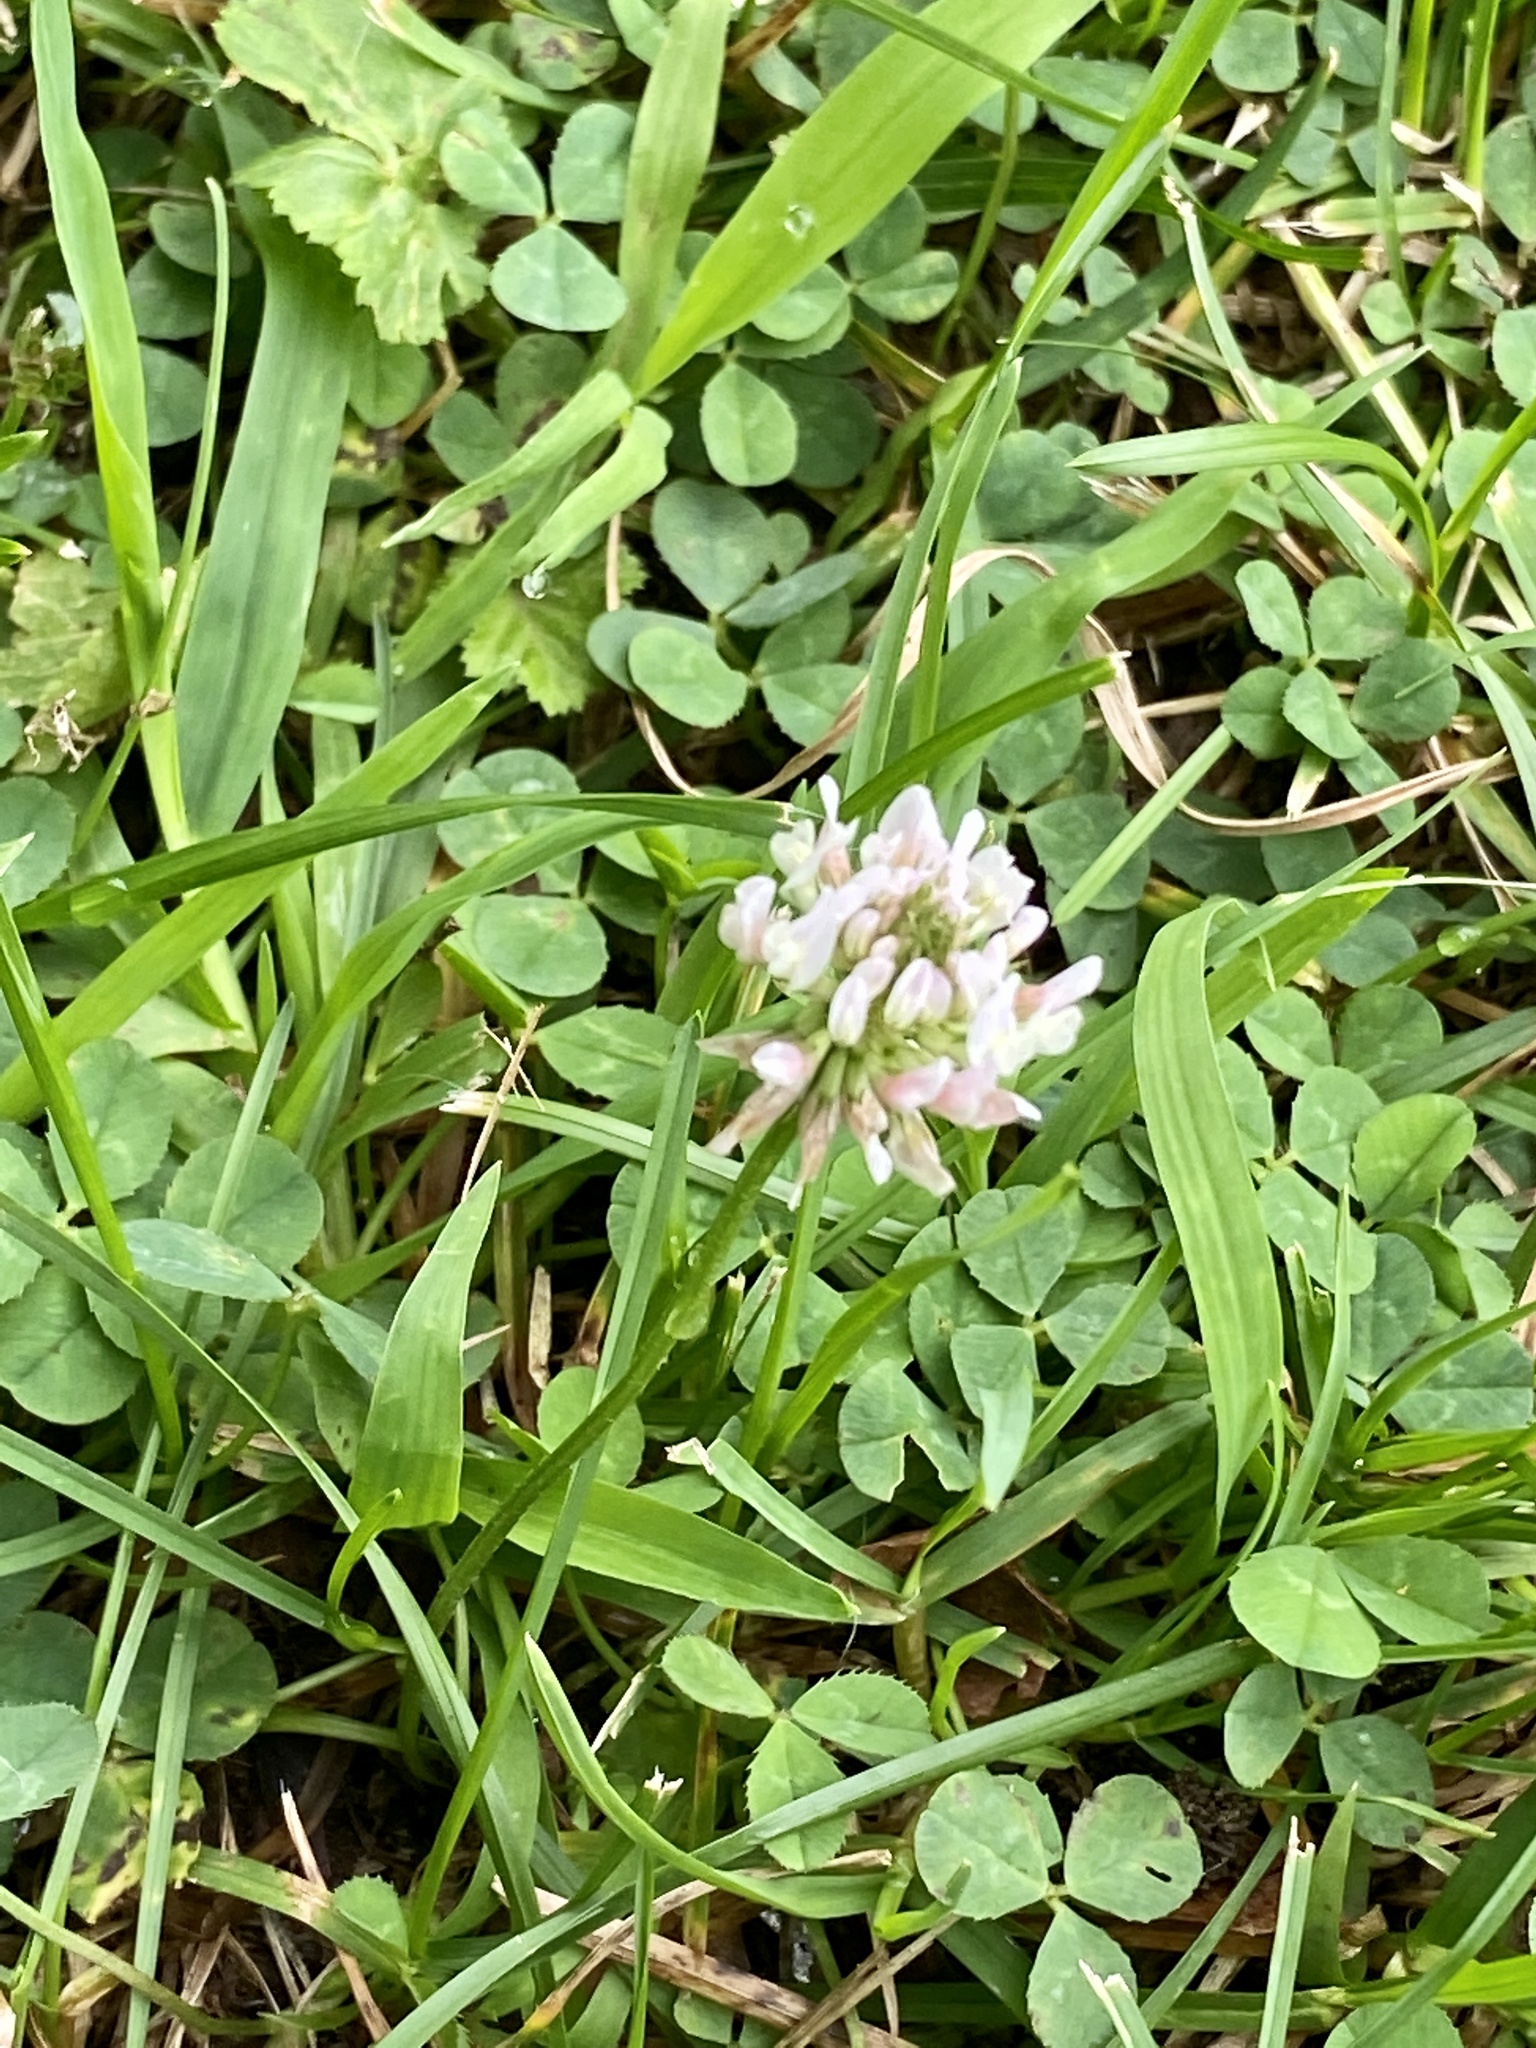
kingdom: Plantae
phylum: Tracheophyta
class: Magnoliopsida
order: Fabales
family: Fabaceae
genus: Trifolium
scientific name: Trifolium repens
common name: White clover
